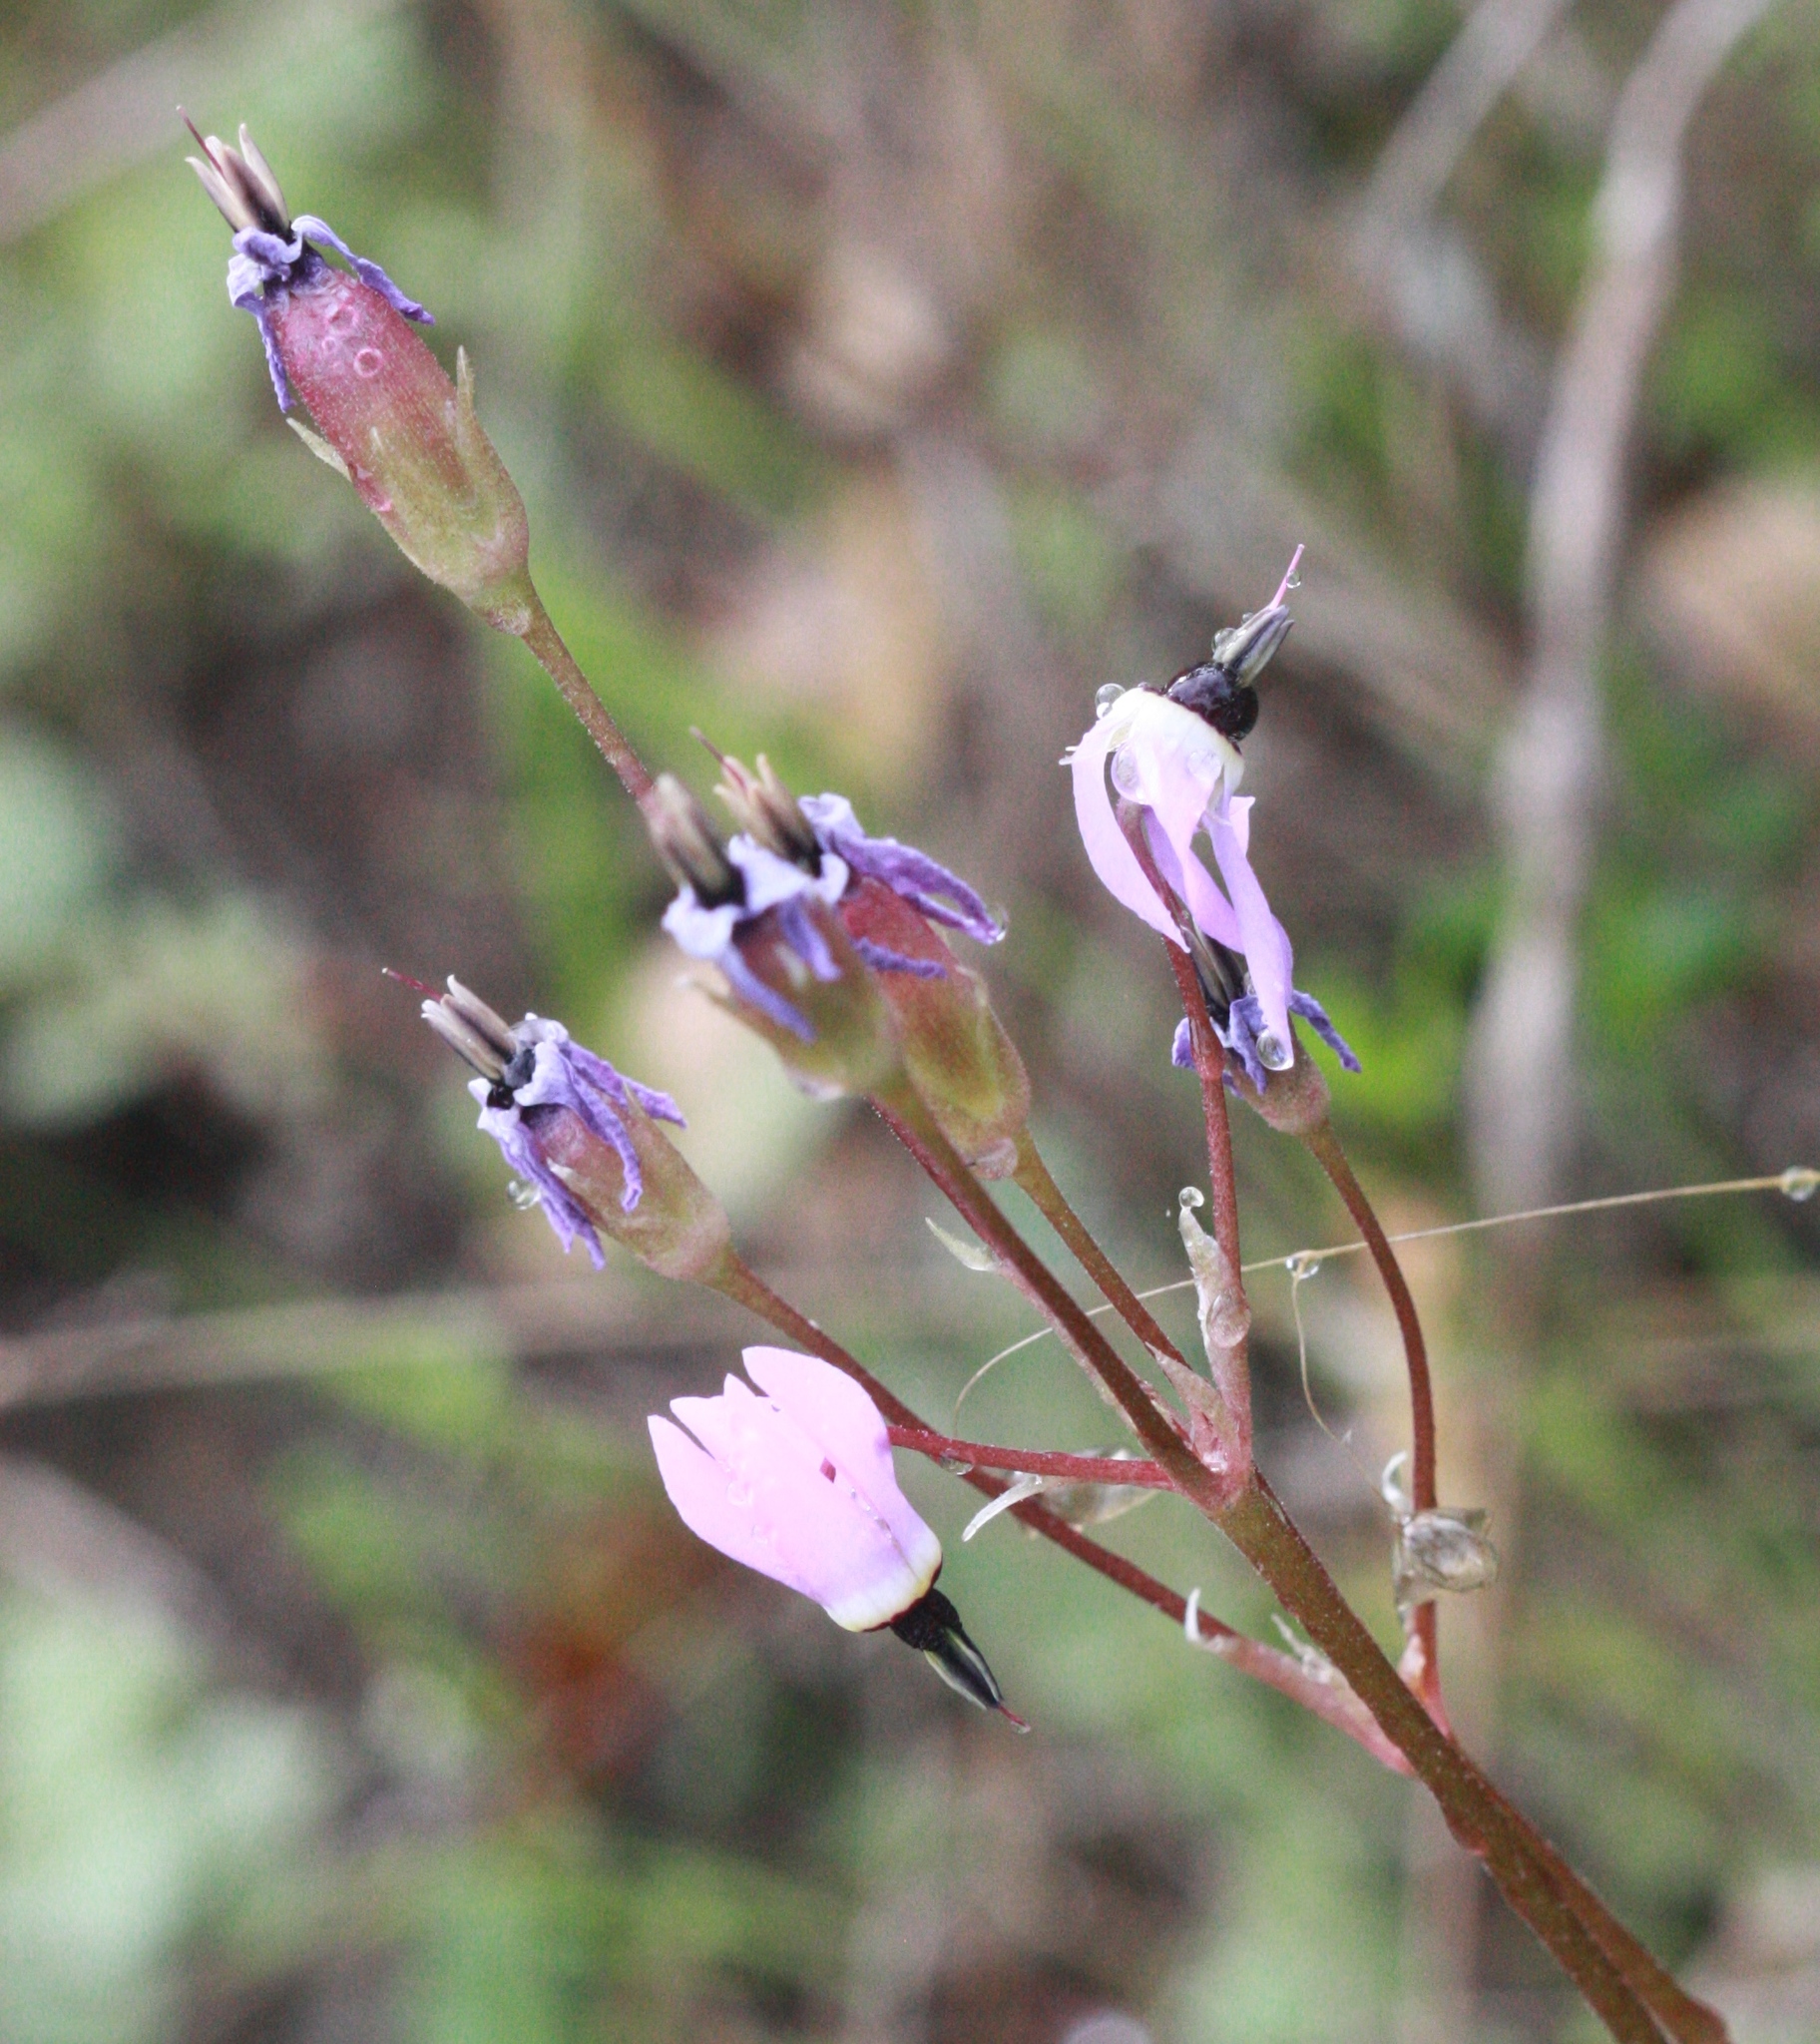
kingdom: Plantae
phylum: Tracheophyta
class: Magnoliopsida
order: Ericales
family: Primulaceae
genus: Dodecatheon
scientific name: Dodecatheon hendersonii
